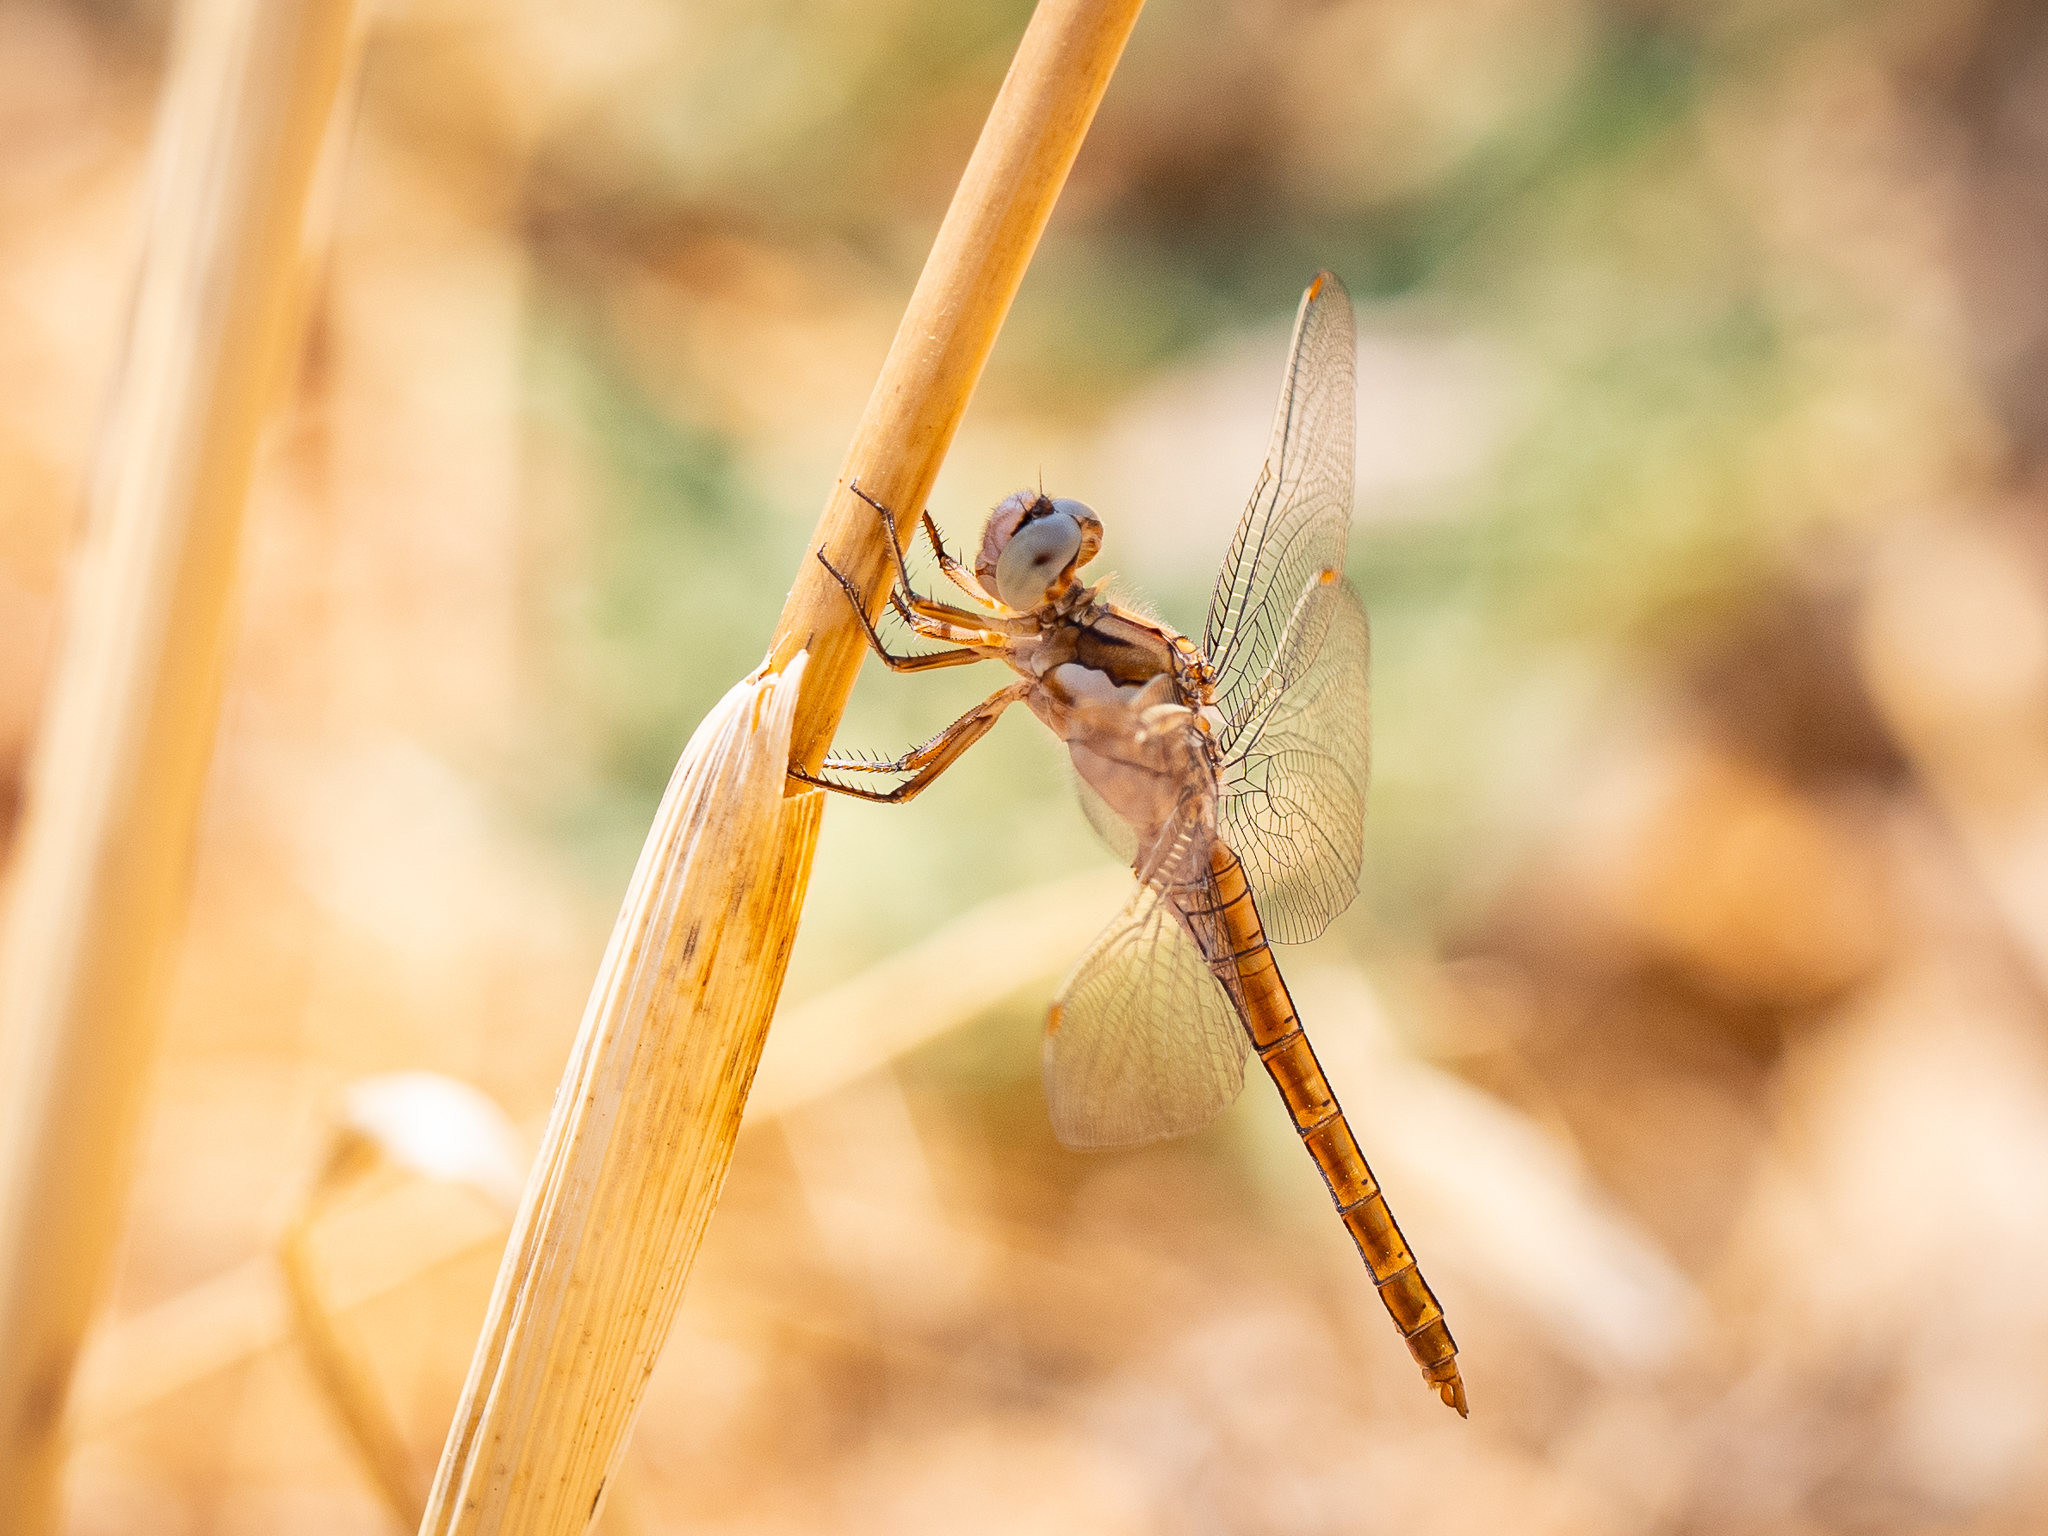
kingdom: Animalia
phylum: Arthropoda
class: Insecta
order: Odonata
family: Libellulidae
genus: Orthetrum
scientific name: Orthetrum brunneum
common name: Southern skimmer
